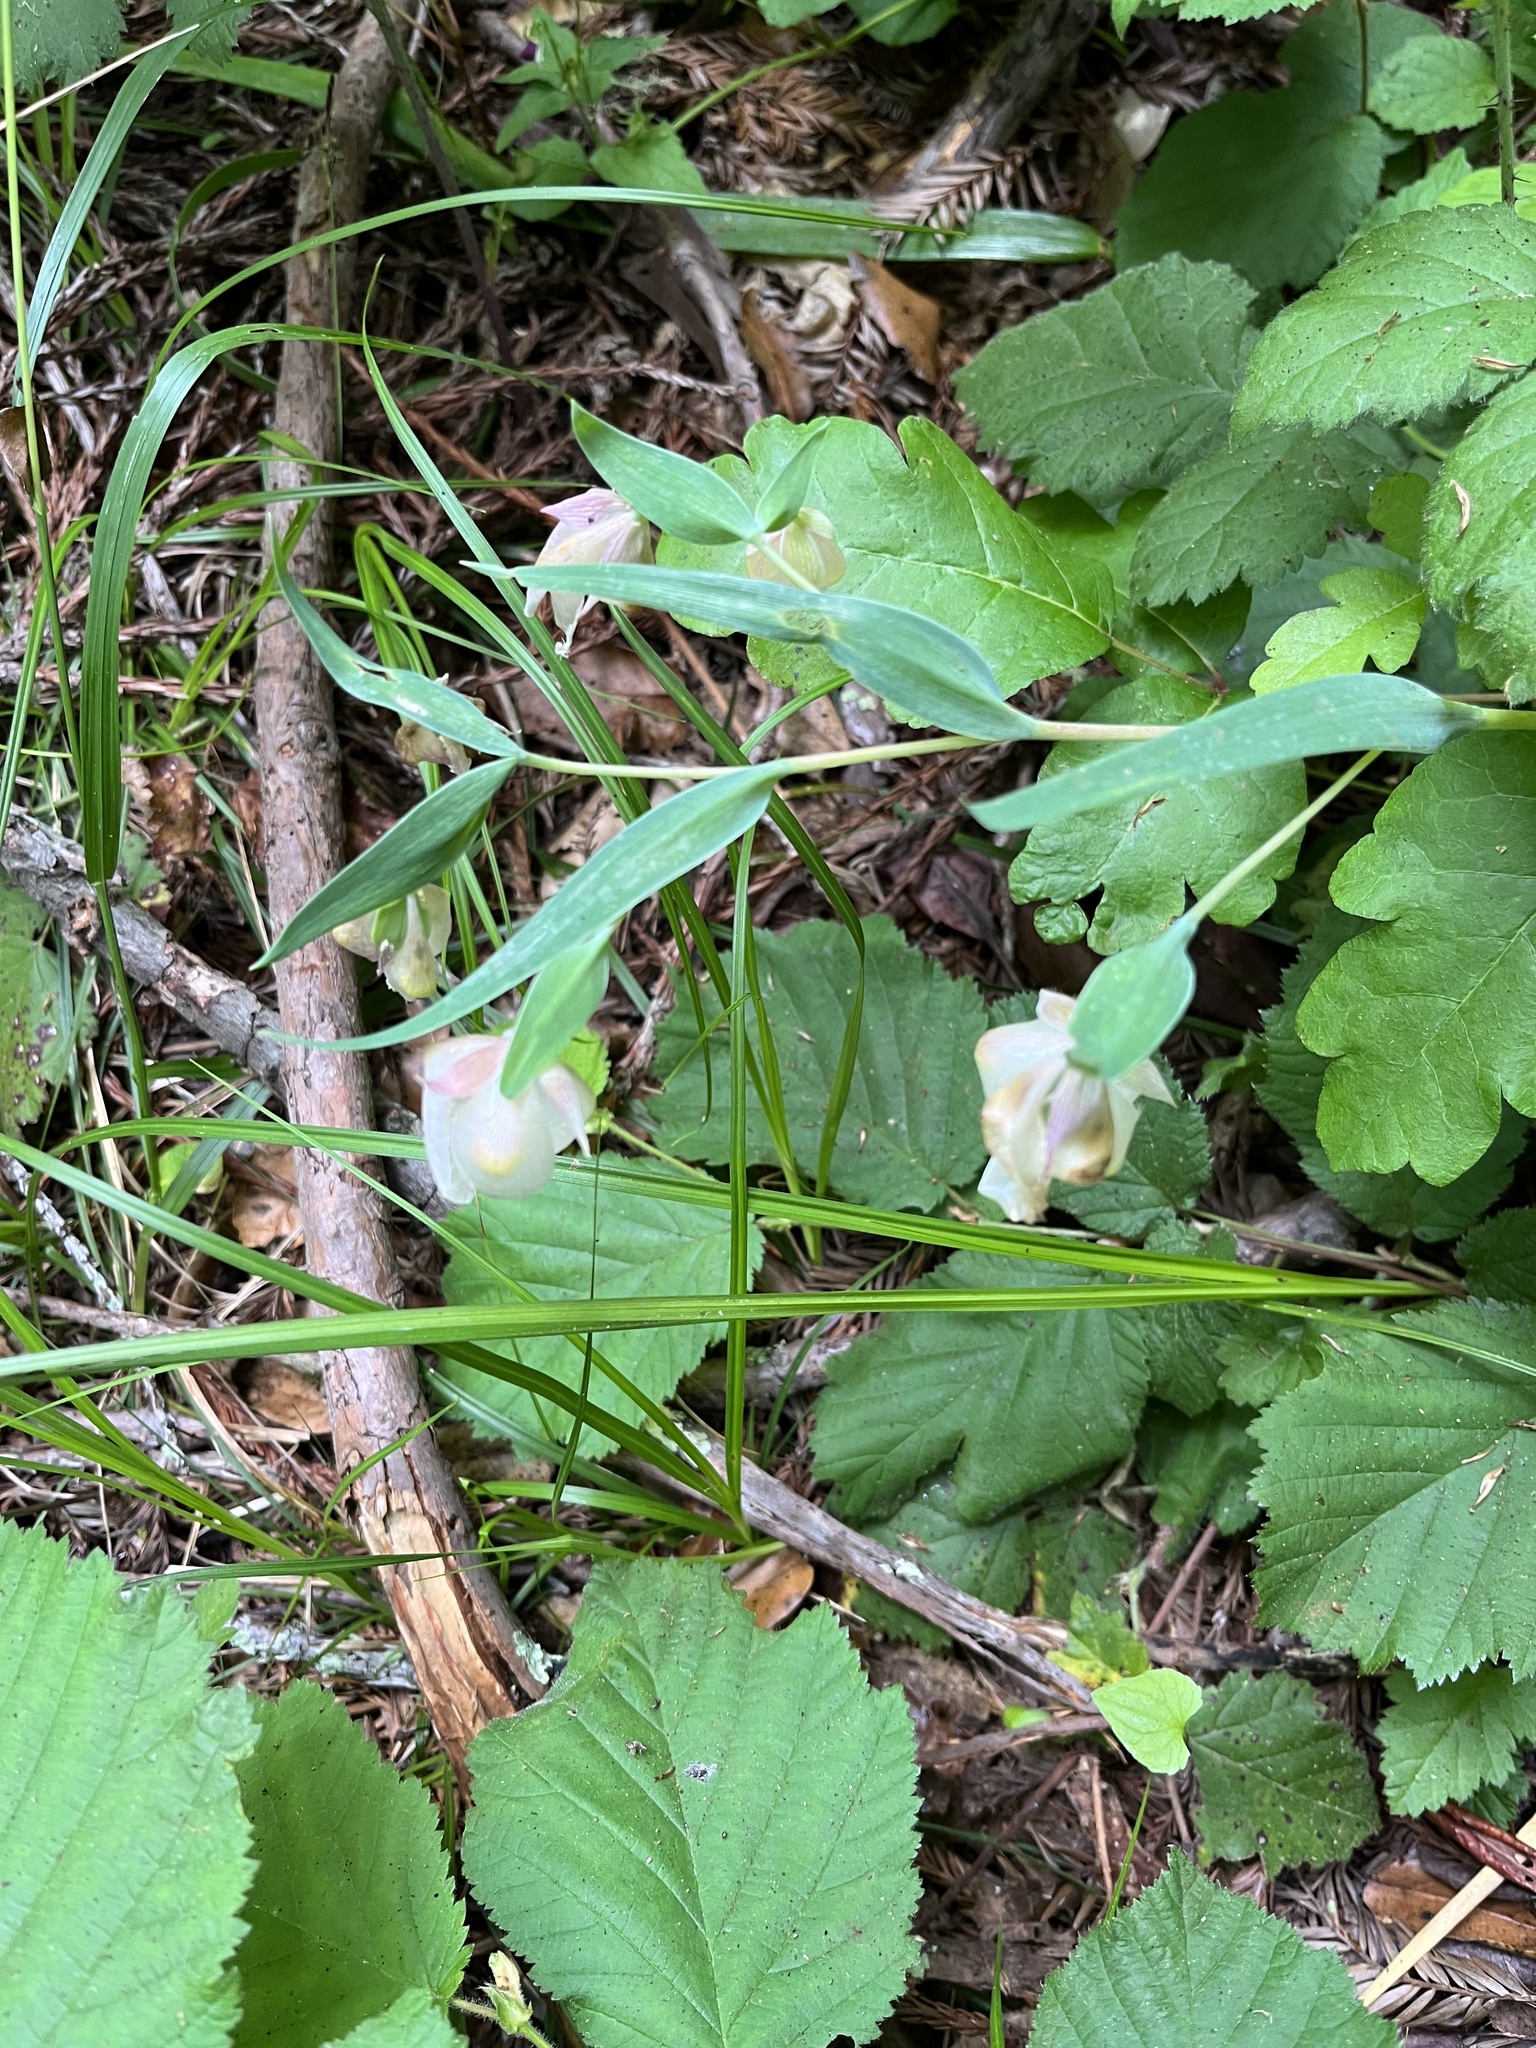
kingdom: Plantae
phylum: Tracheophyta
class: Liliopsida
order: Liliales
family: Liliaceae
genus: Calochortus
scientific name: Calochortus albus
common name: Fairy-lantern
